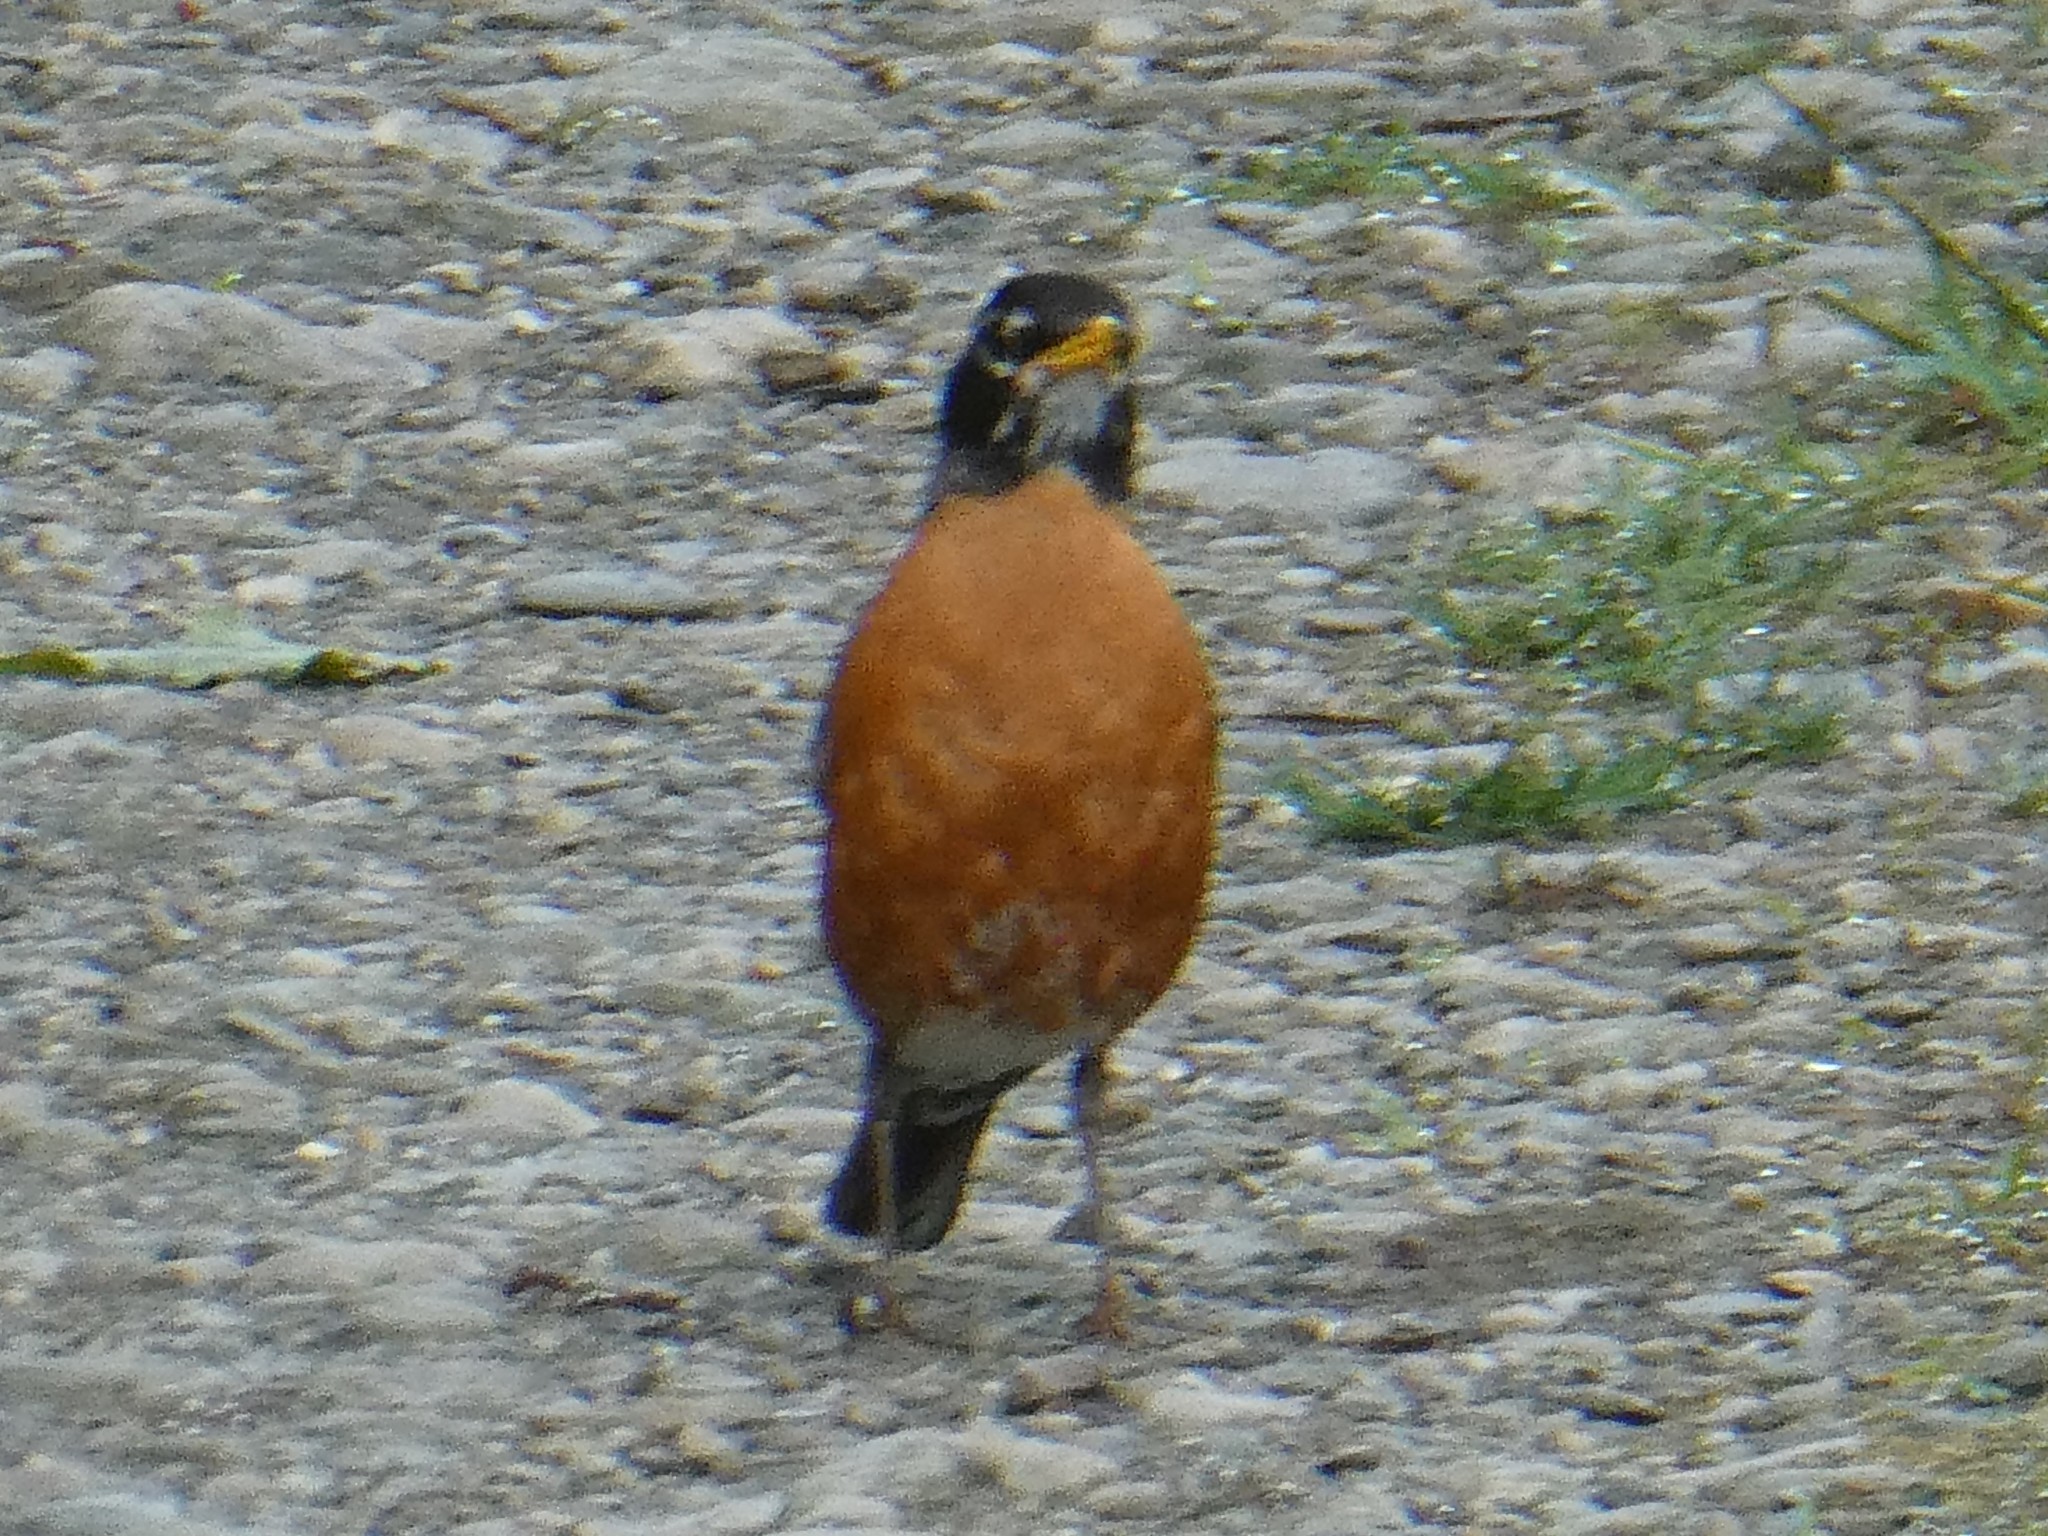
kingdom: Animalia
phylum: Chordata
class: Aves
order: Passeriformes
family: Turdidae
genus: Turdus
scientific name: Turdus migratorius
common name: American robin
